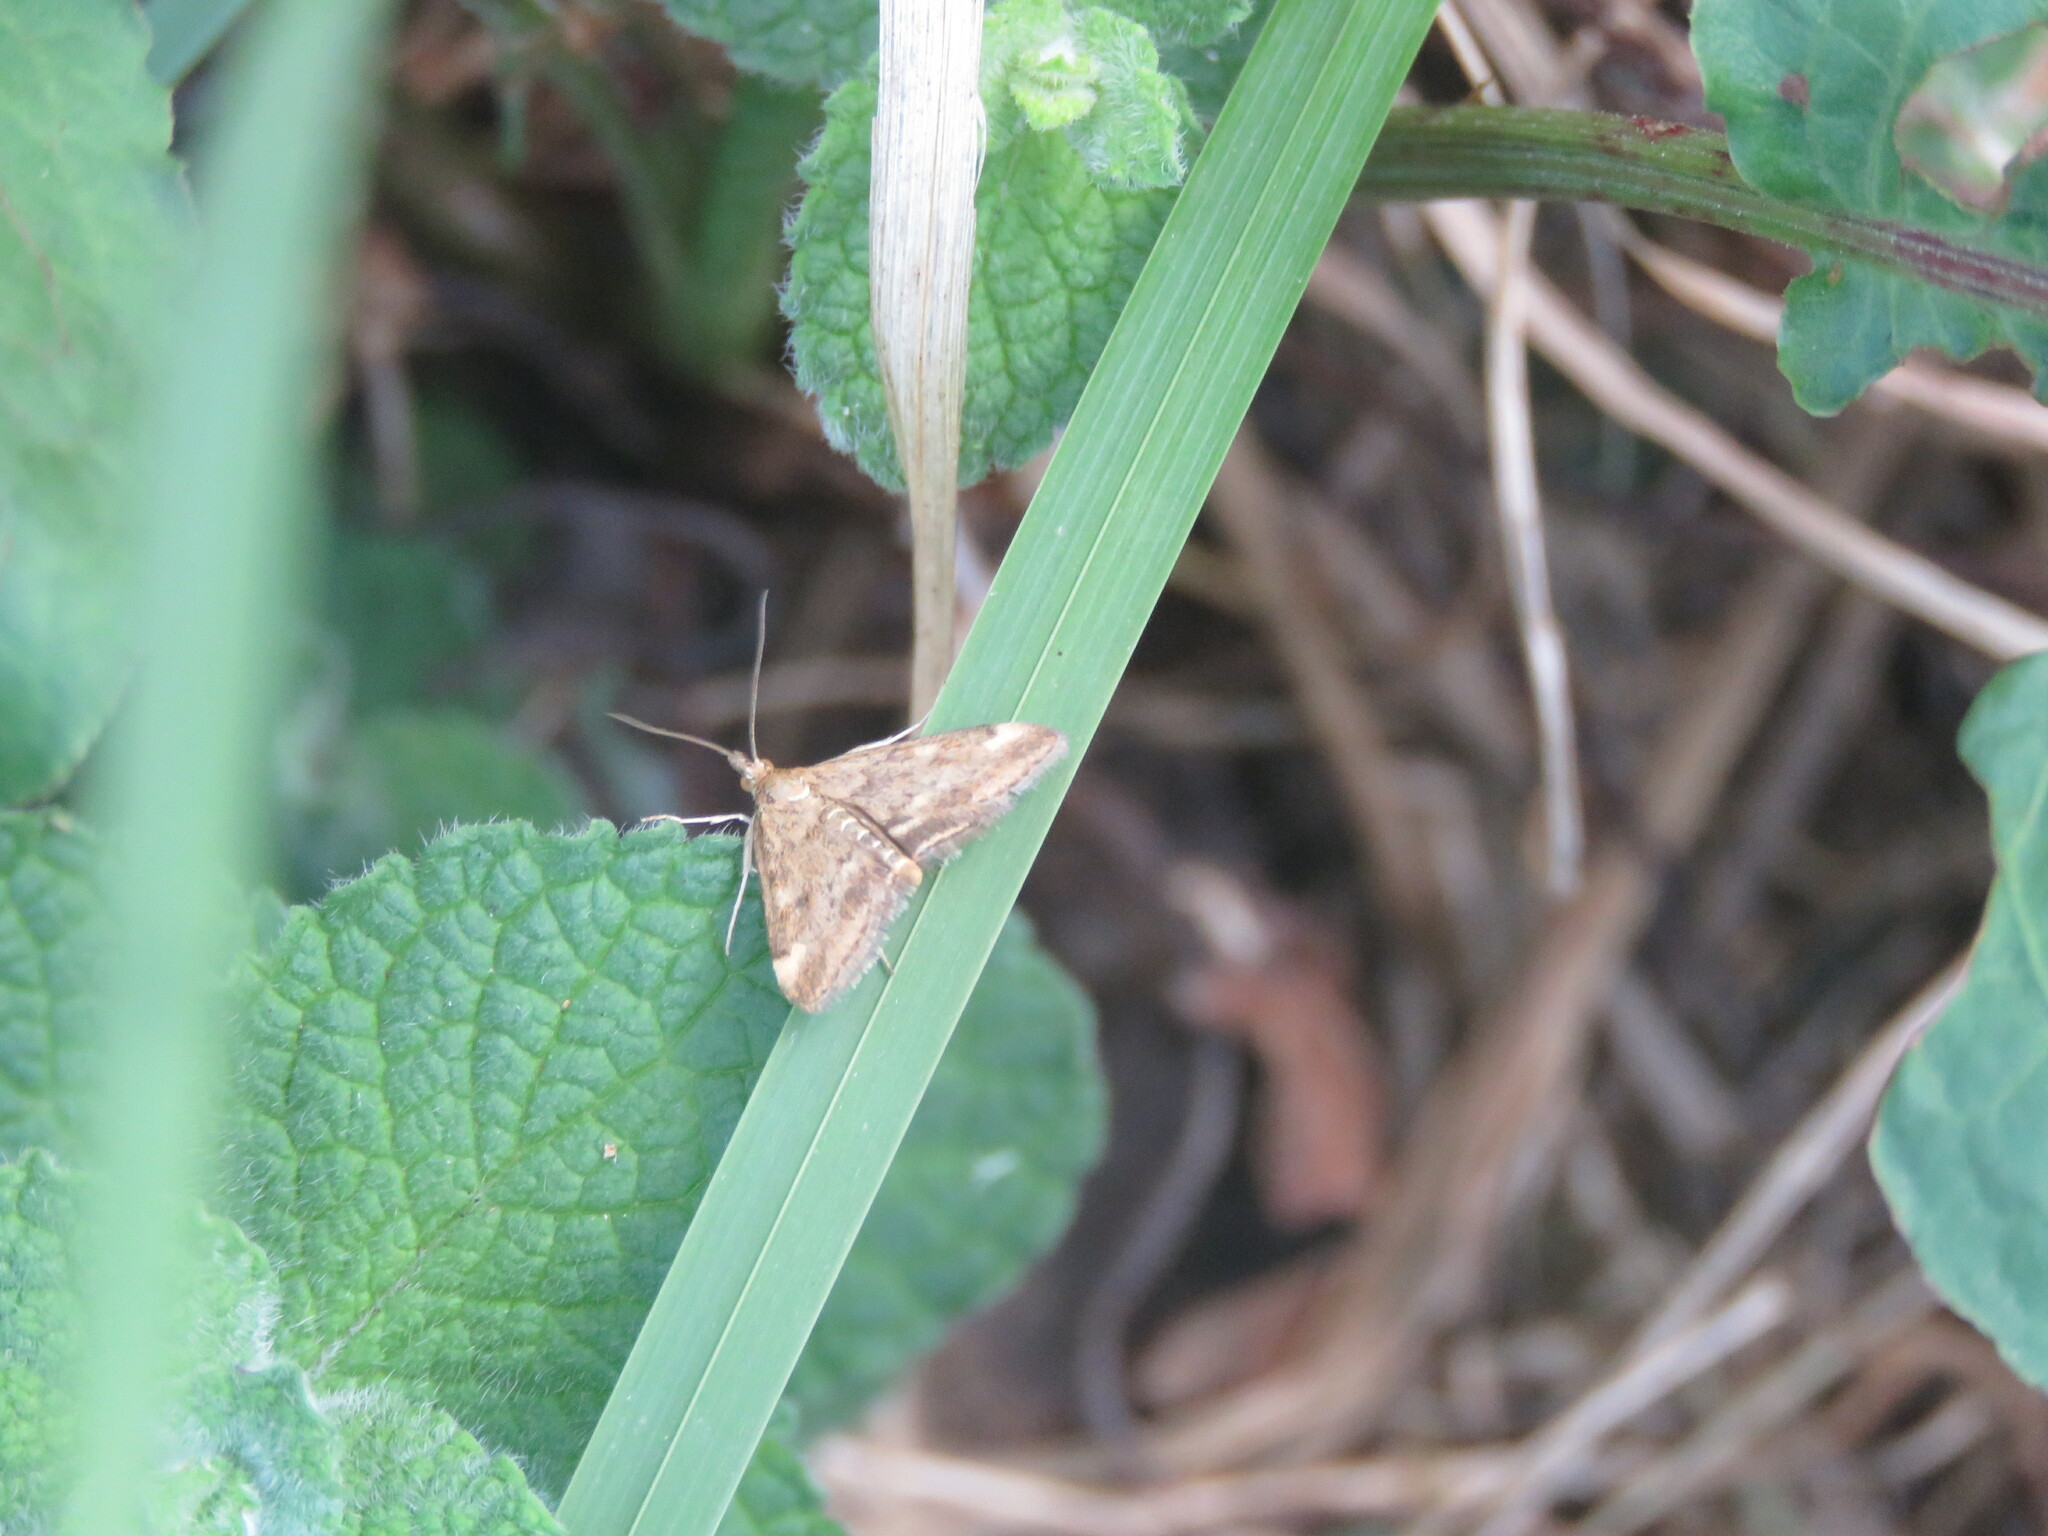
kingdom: Animalia
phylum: Arthropoda
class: Insecta
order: Lepidoptera
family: Crambidae
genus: Pyrausta
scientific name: Pyrausta despicata
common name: Straw-barred pearl
